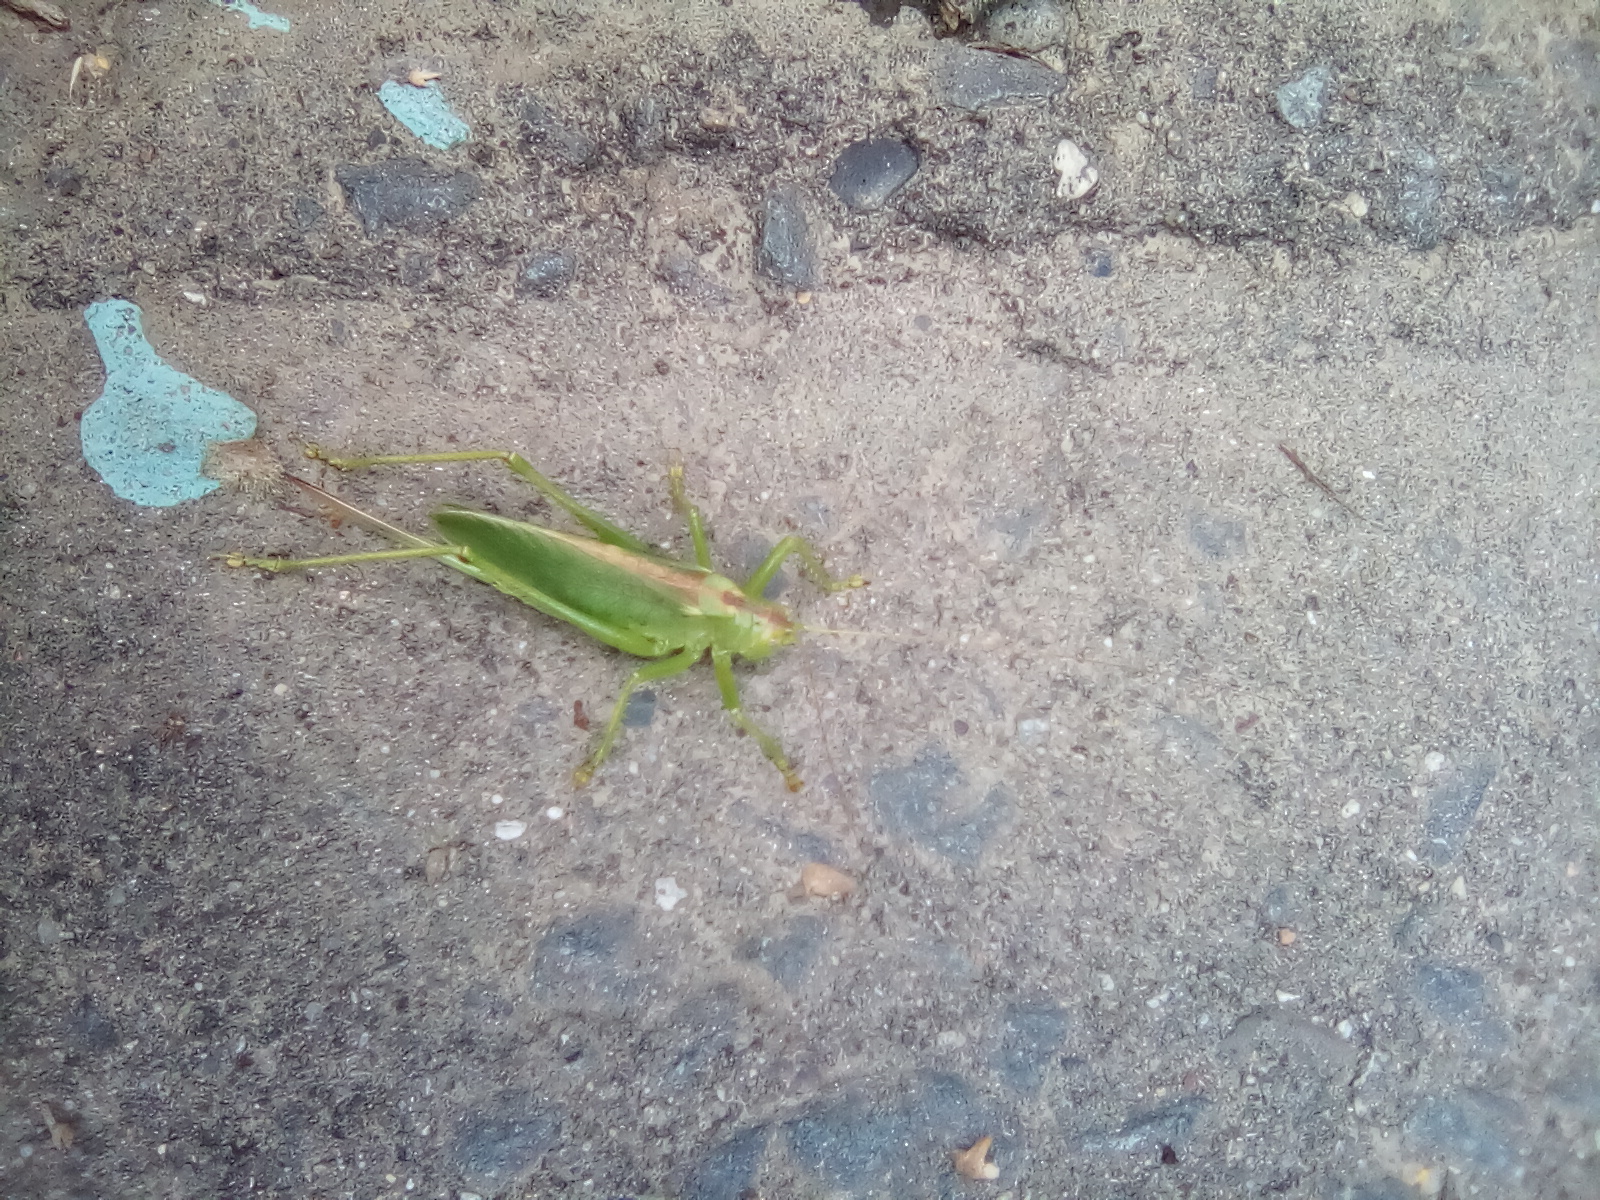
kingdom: Animalia
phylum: Arthropoda
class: Insecta
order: Orthoptera
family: Tettigoniidae
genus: Tettigonia
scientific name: Tettigonia cantans
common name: Upland green bush-cricket
